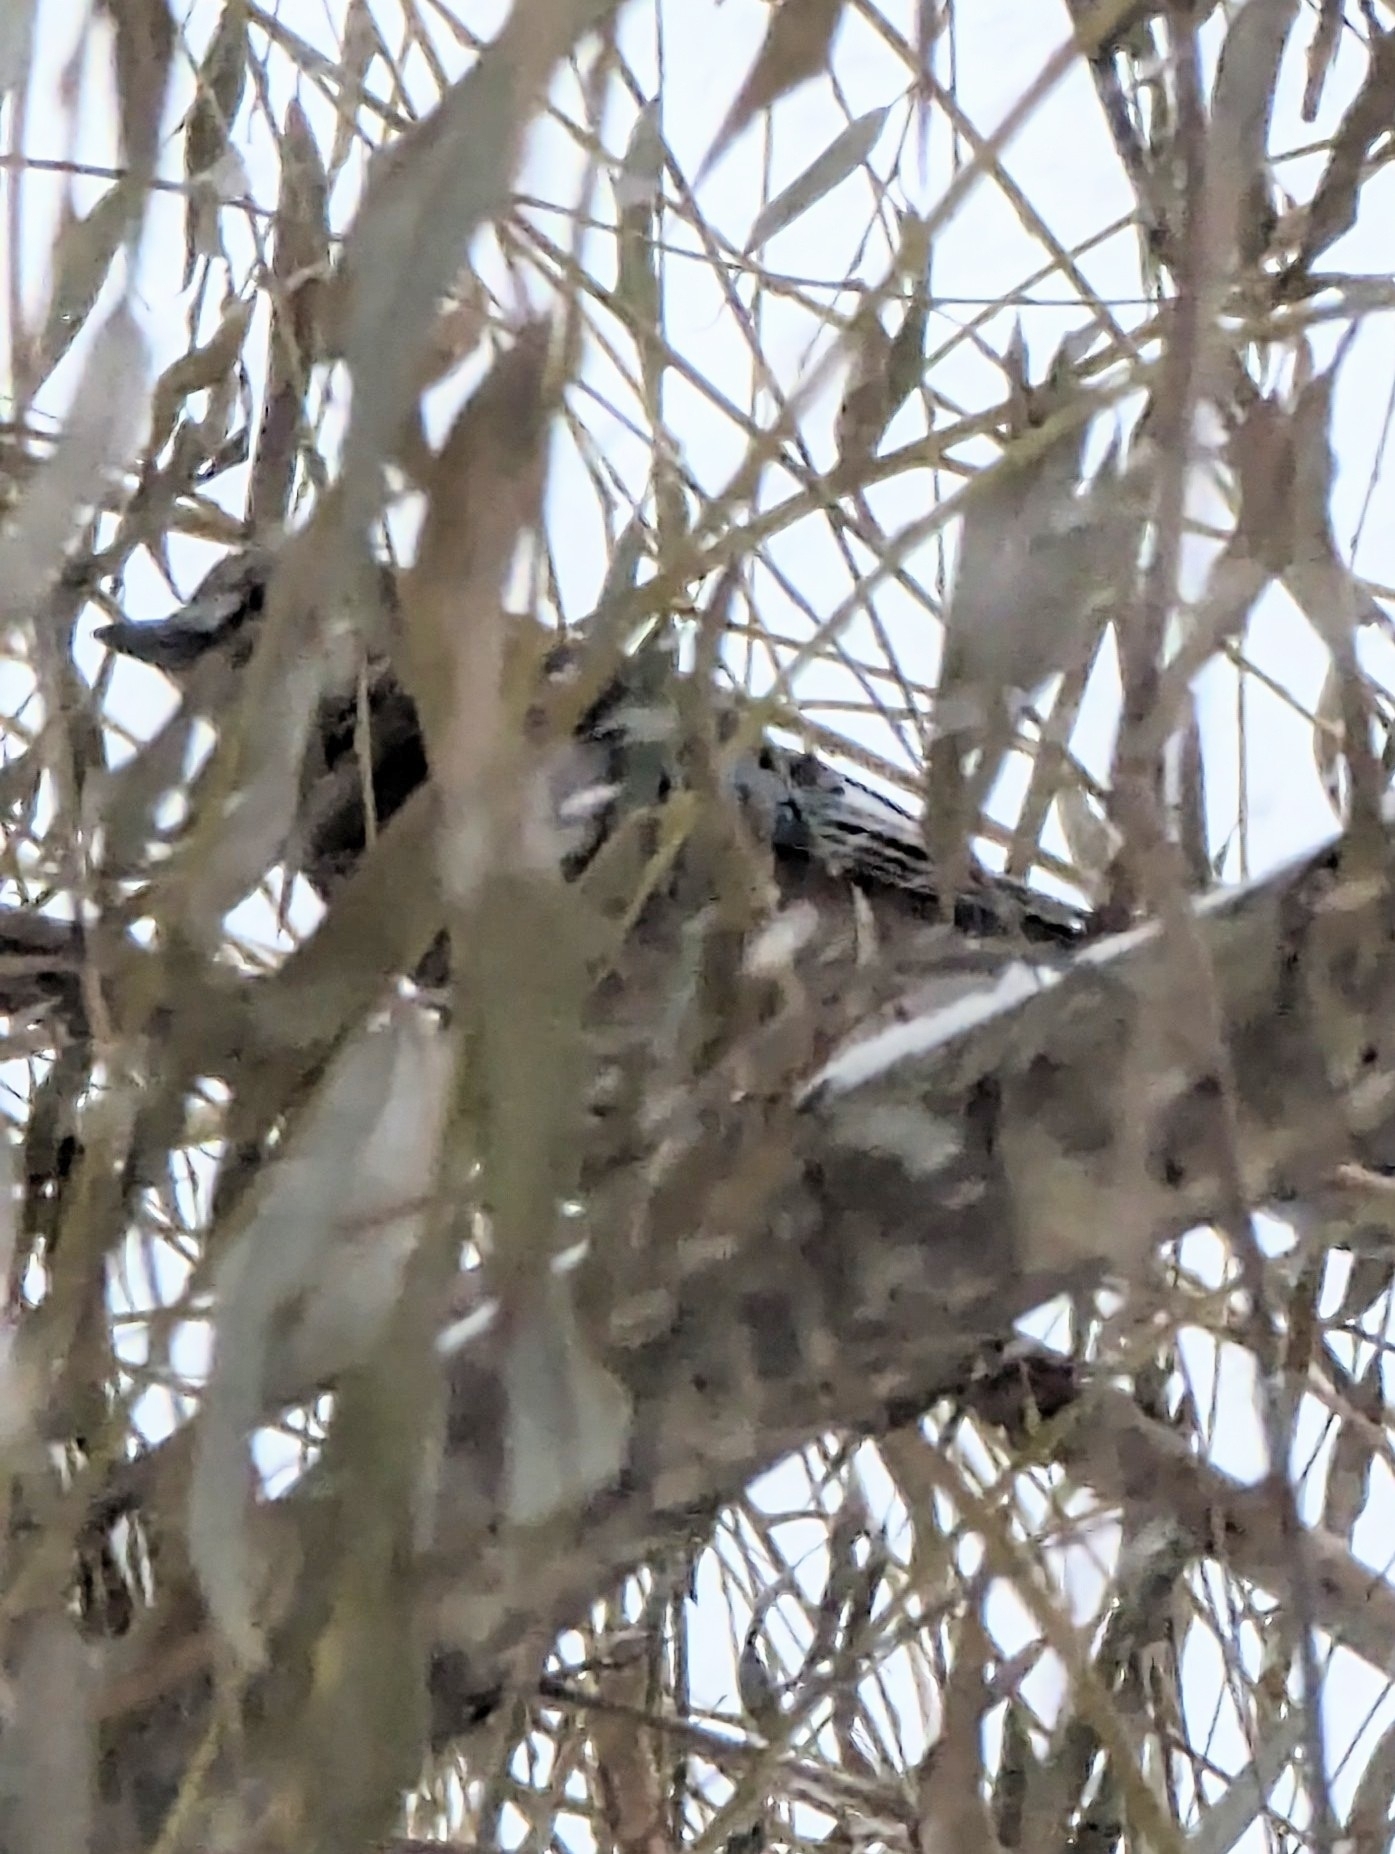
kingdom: Animalia
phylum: Chordata
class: Aves
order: Passeriformes
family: Corvidae
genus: Garrulus
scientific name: Garrulus glandarius
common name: Eurasian jay
